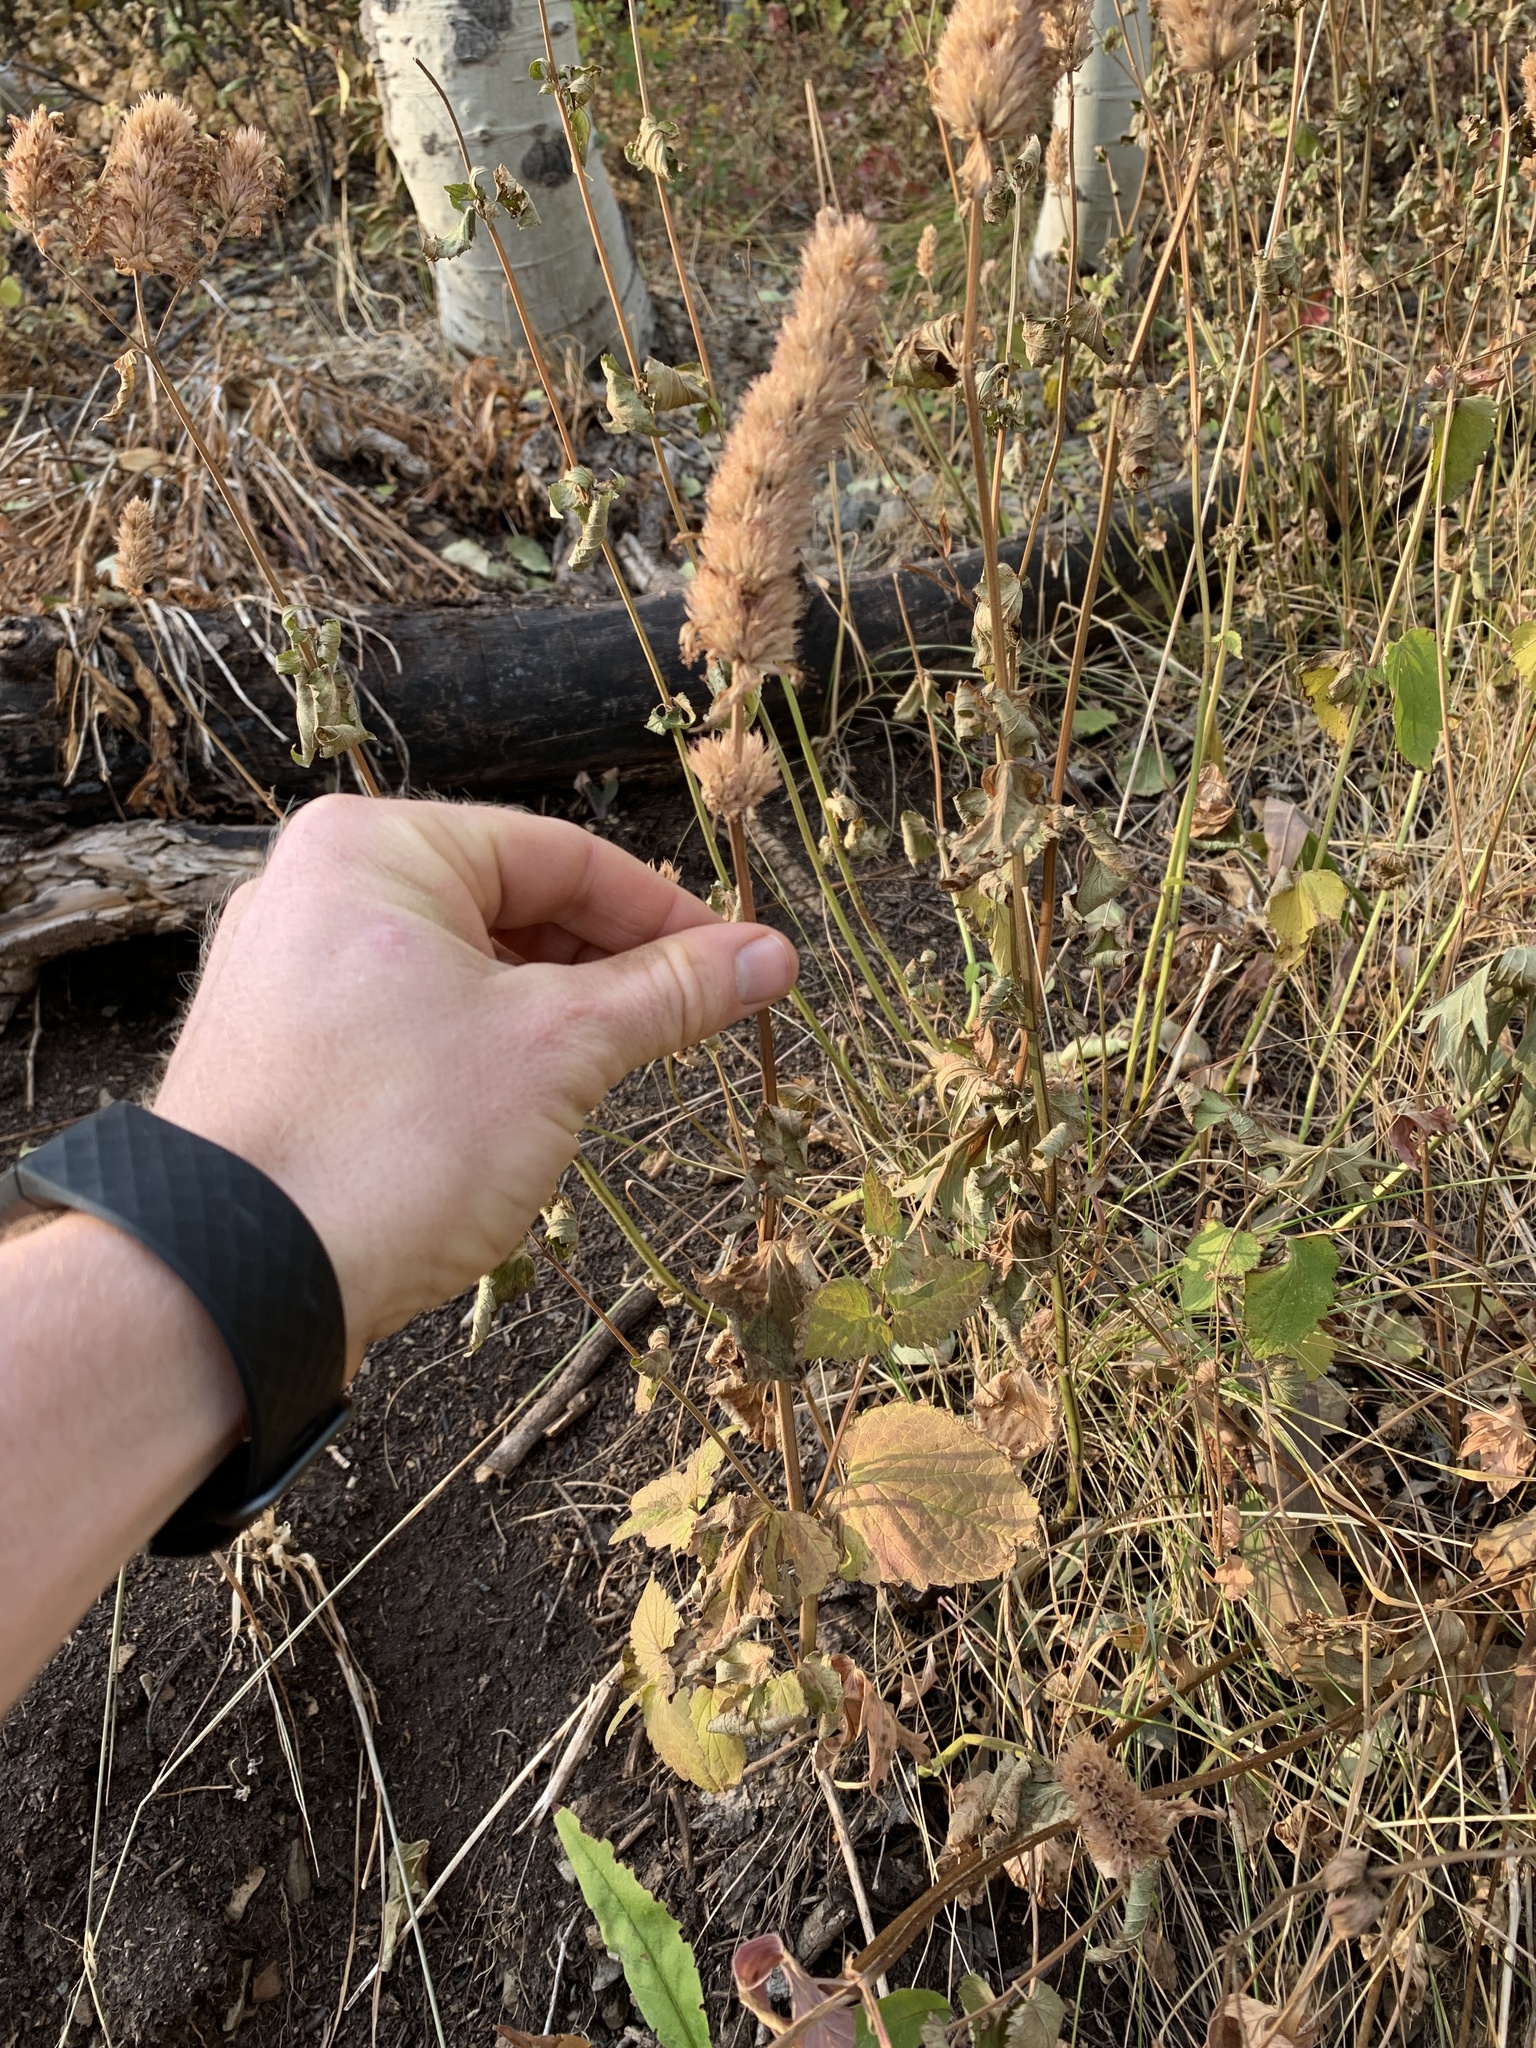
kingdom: Plantae
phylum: Tracheophyta
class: Magnoliopsida
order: Lamiales
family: Lamiaceae
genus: Agastache
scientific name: Agastache urticifolia
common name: Horsemint giant hyssop
